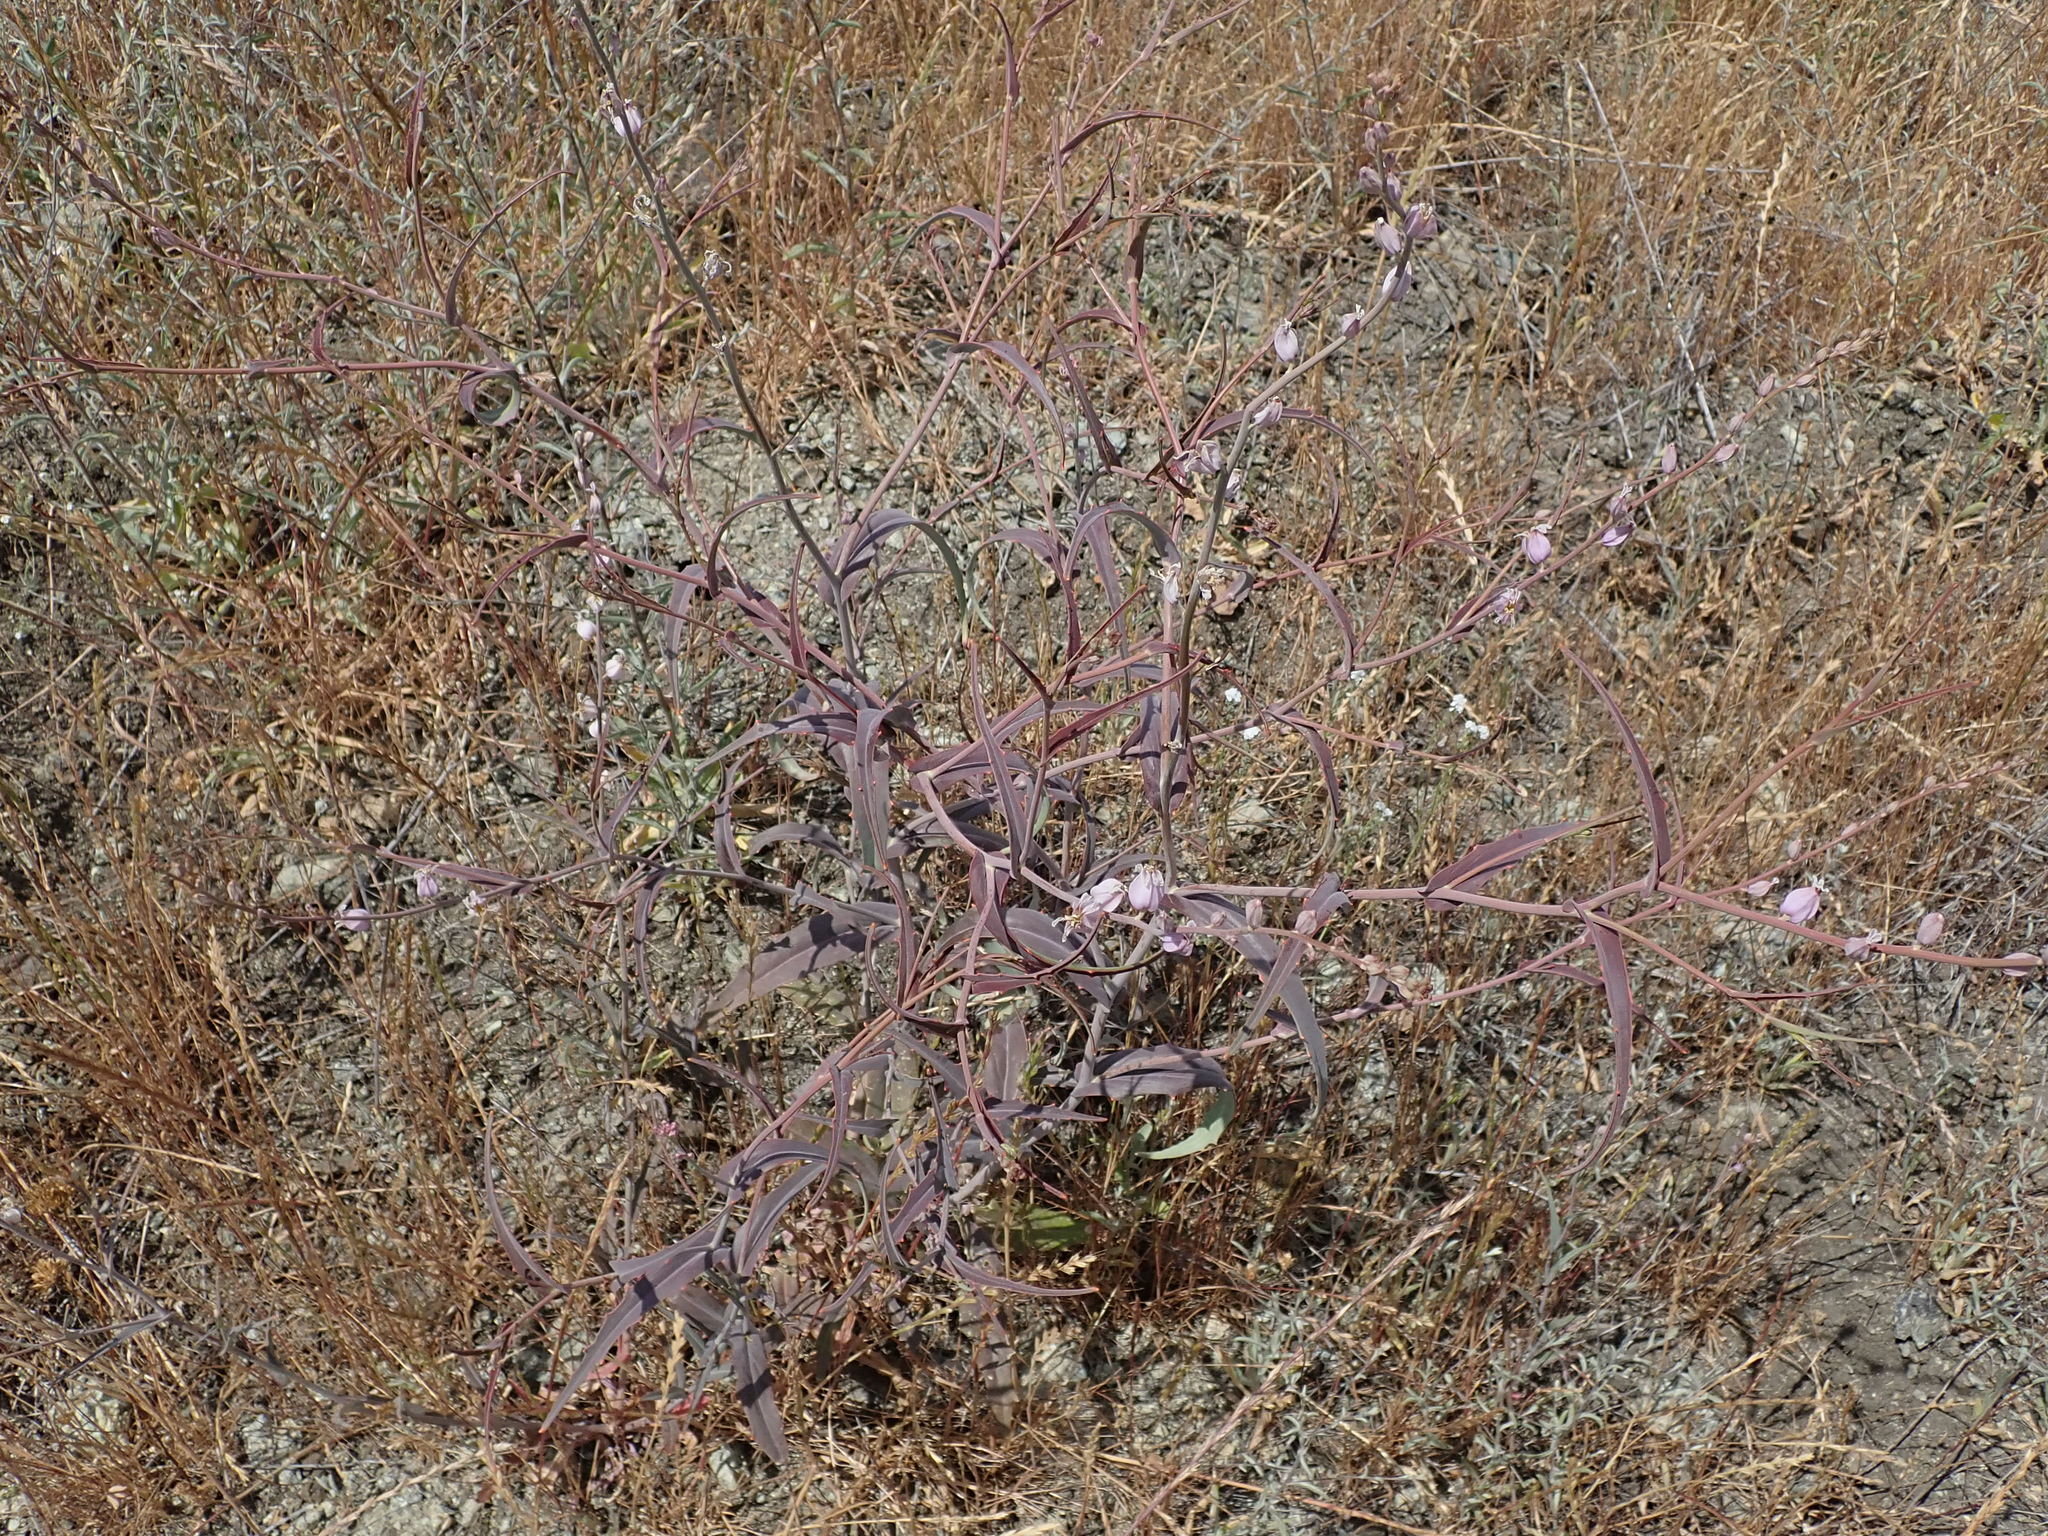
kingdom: Plantae
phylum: Tracheophyta
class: Magnoliopsida
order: Brassicales
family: Brassicaceae
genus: Streptanthus
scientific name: Streptanthus glandulosus
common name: Jewel-flower
